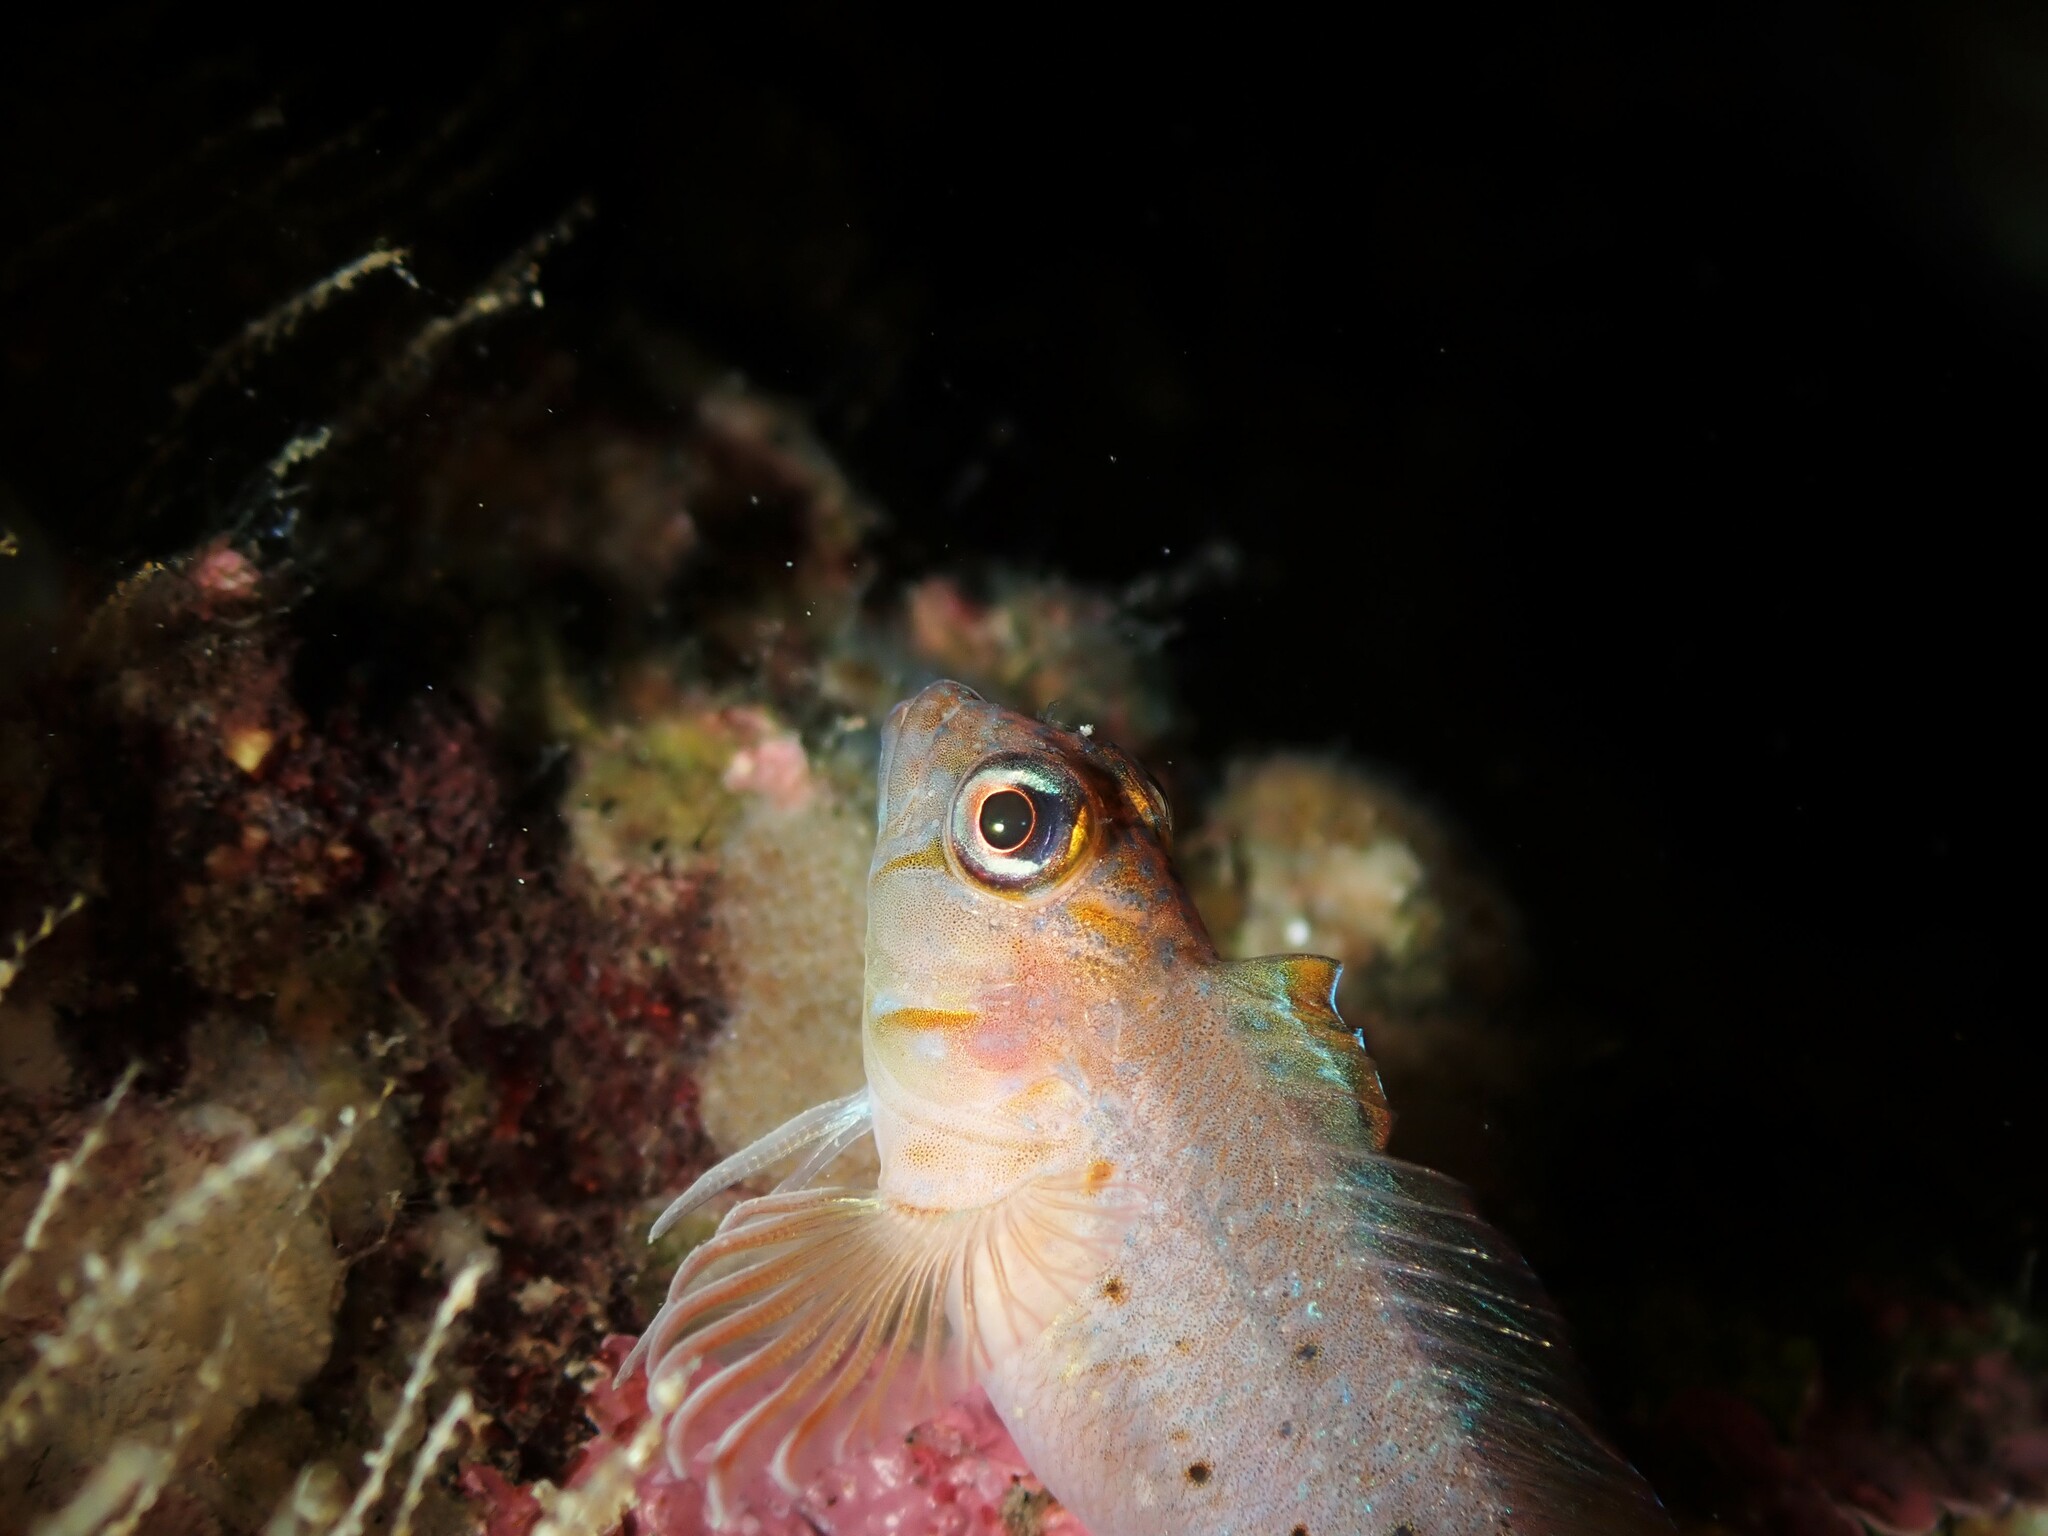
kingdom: Animalia
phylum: Chordata
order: Perciformes
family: Tripterygiidae
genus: Notoclinops
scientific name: Notoclinops yaldwyni
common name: Yaldwyn's triplefin
